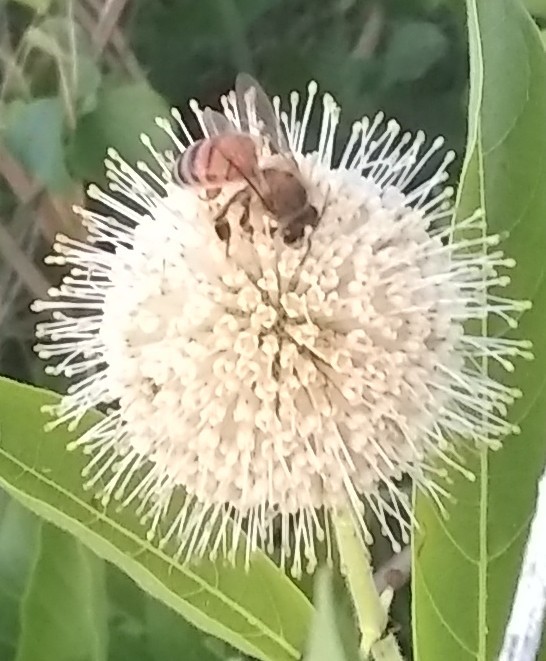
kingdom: Animalia
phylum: Arthropoda
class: Insecta
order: Hymenoptera
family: Apidae
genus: Apis
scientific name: Apis mellifera
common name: Honey bee
